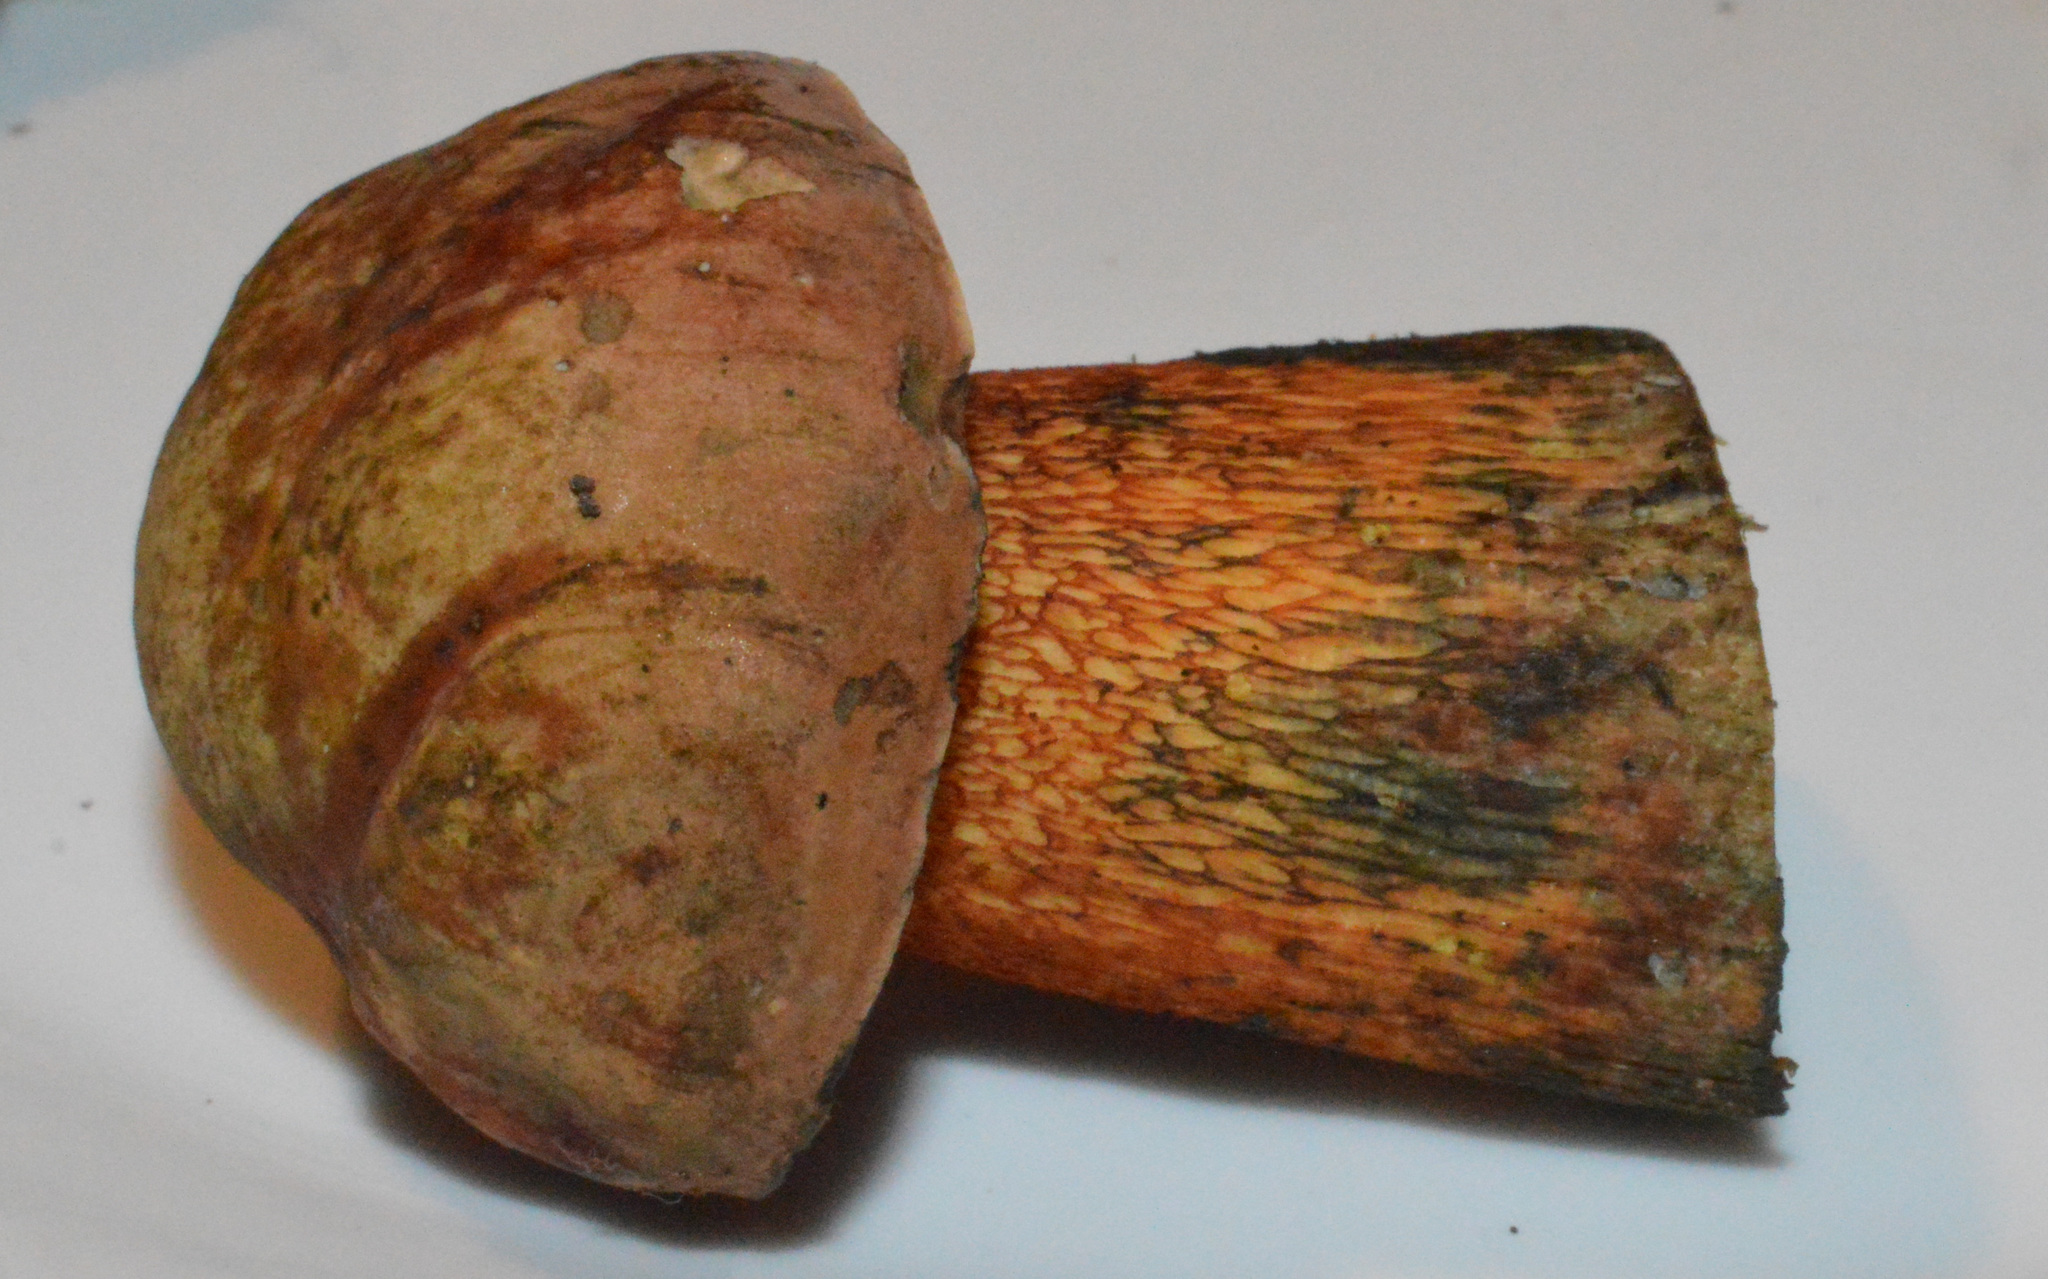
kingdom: Fungi
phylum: Basidiomycota
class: Agaricomycetes
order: Boletales
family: Boletaceae
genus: Suillellus
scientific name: Suillellus luridus
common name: Lurid bolete
